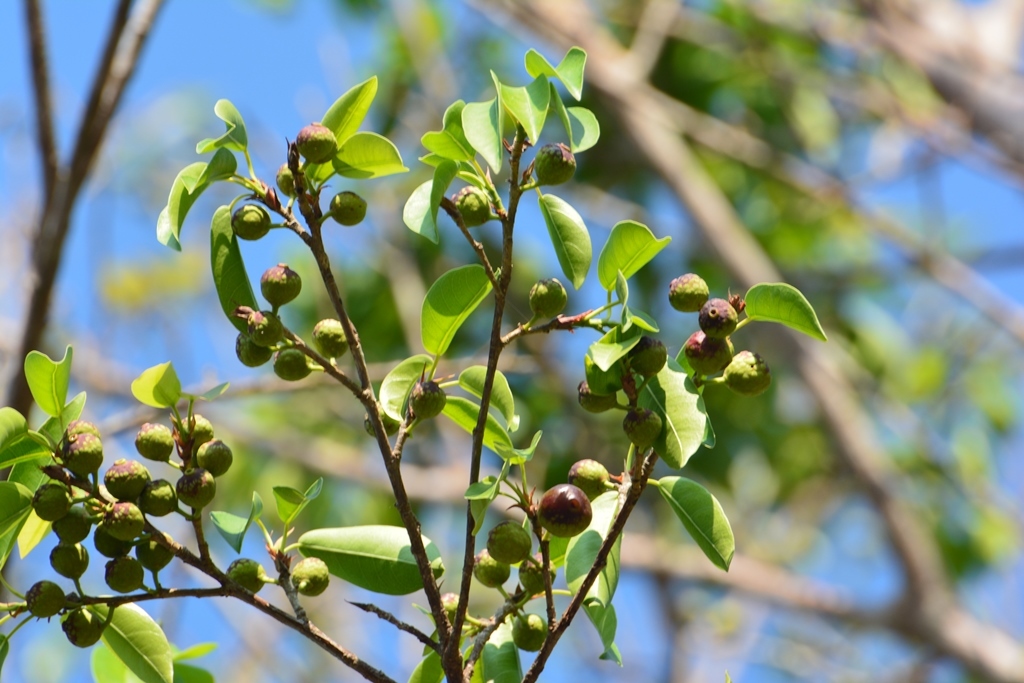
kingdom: Plantae
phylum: Tracheophyta
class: Magnoliopsida
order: Rosales
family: Moraceae
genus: Ficus
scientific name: Ficus pertusa
